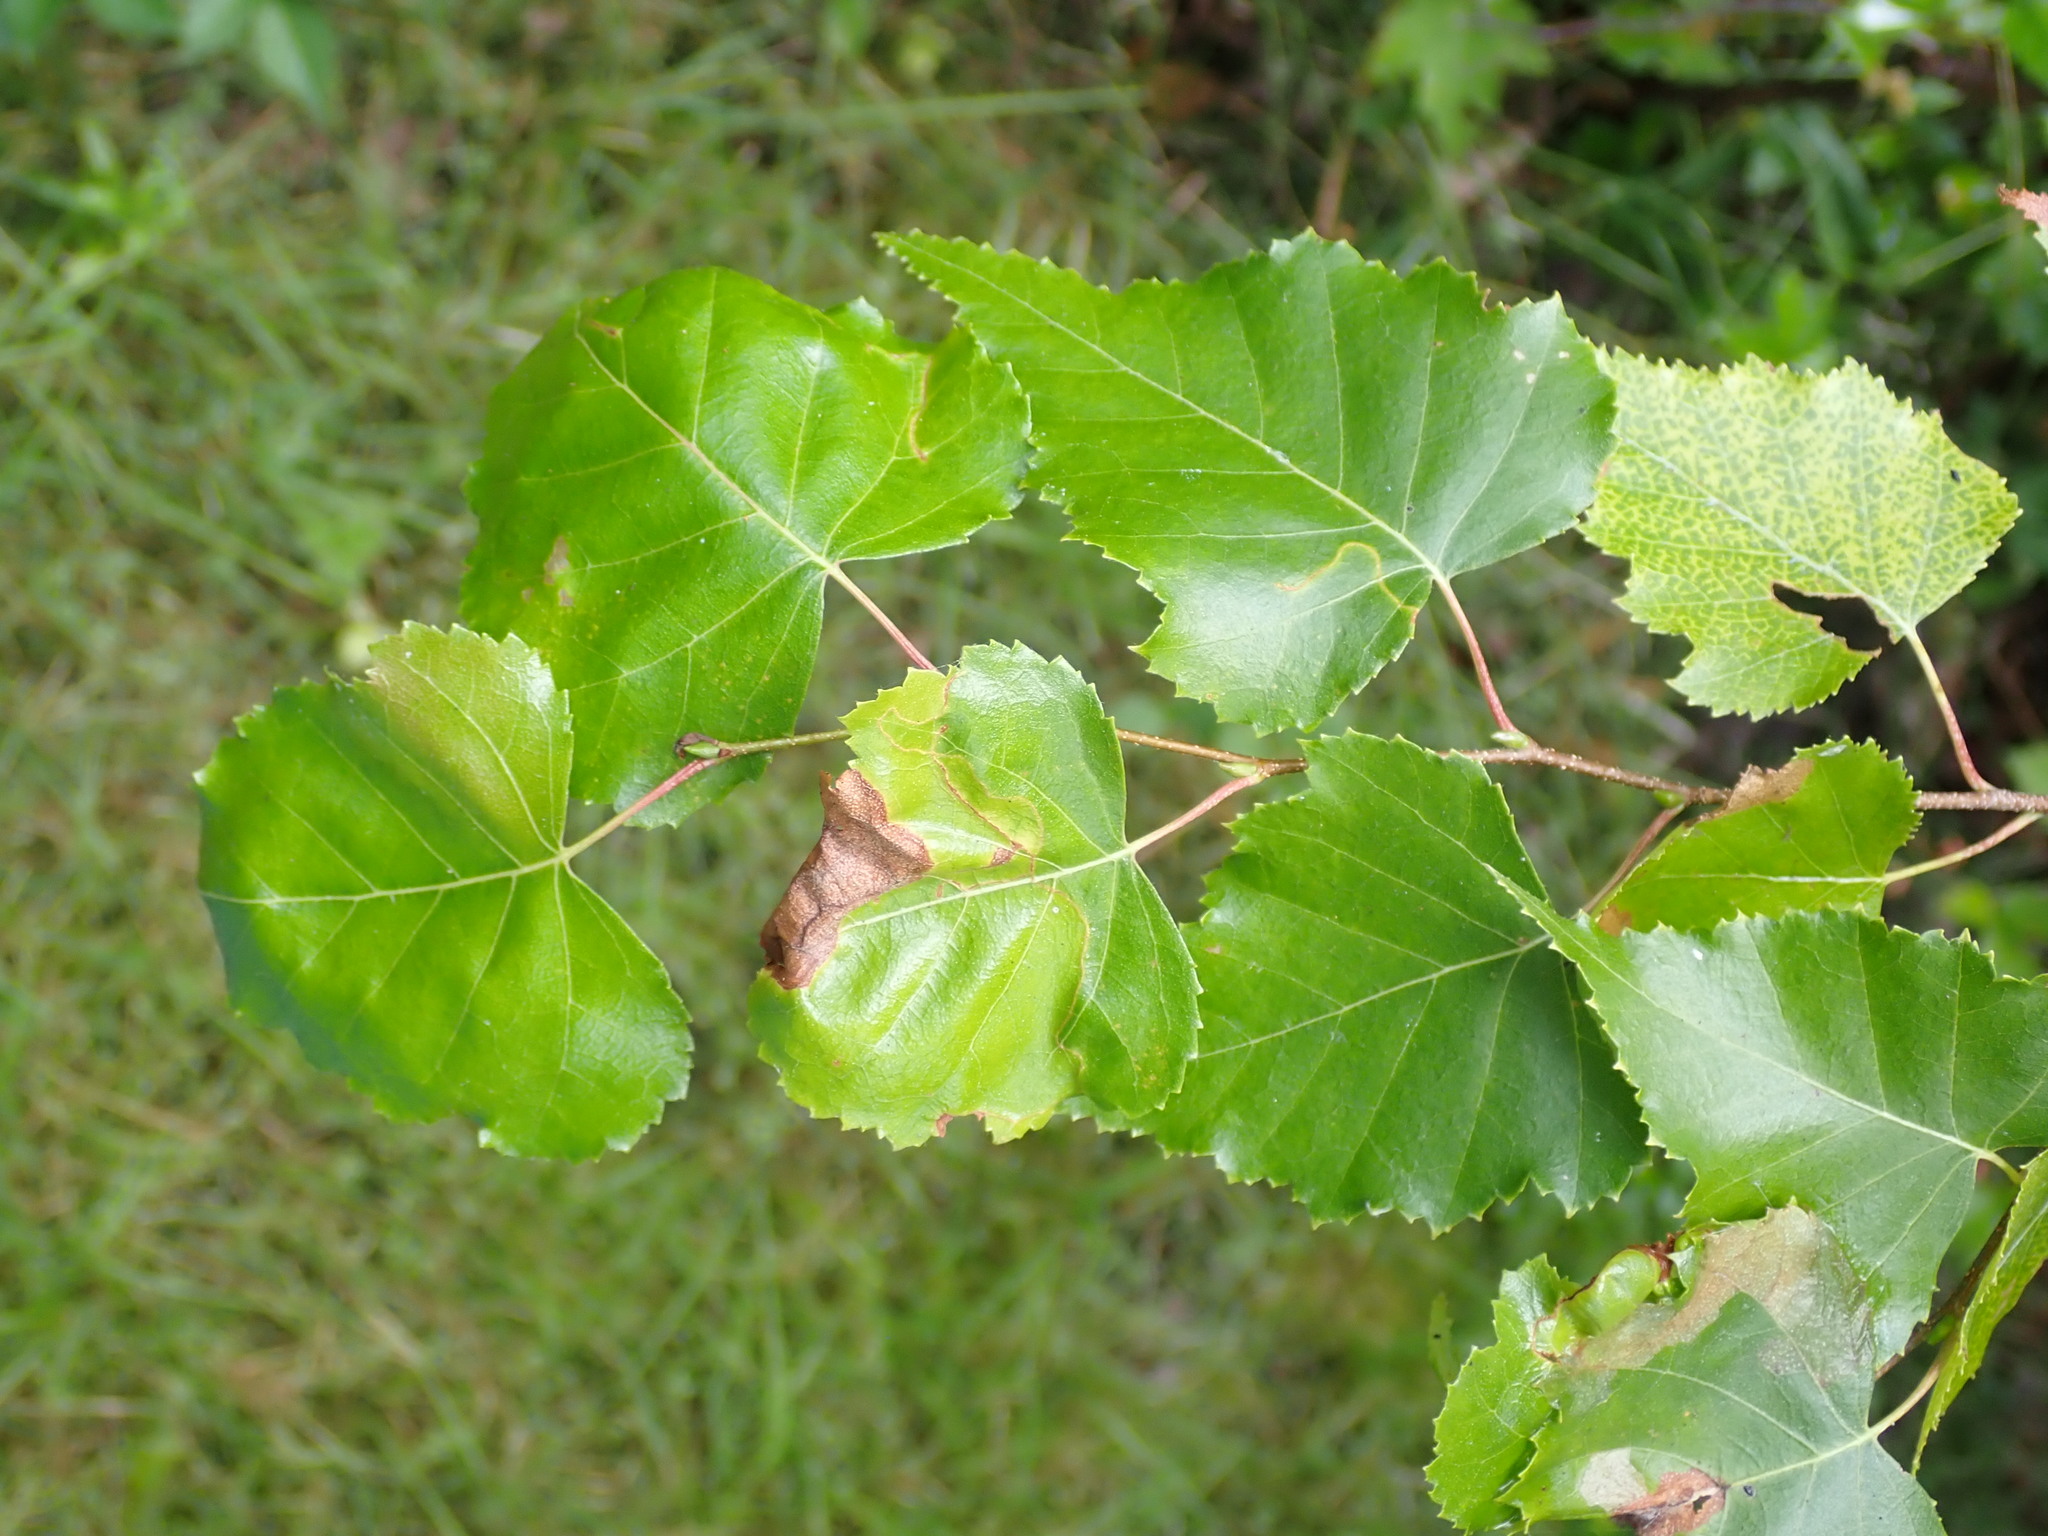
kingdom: Plantae
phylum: Tracheophyta
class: Magnoliopsida
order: Fagales
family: Betulaceae
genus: Betula
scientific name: Betula populifolia
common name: Fire birch
